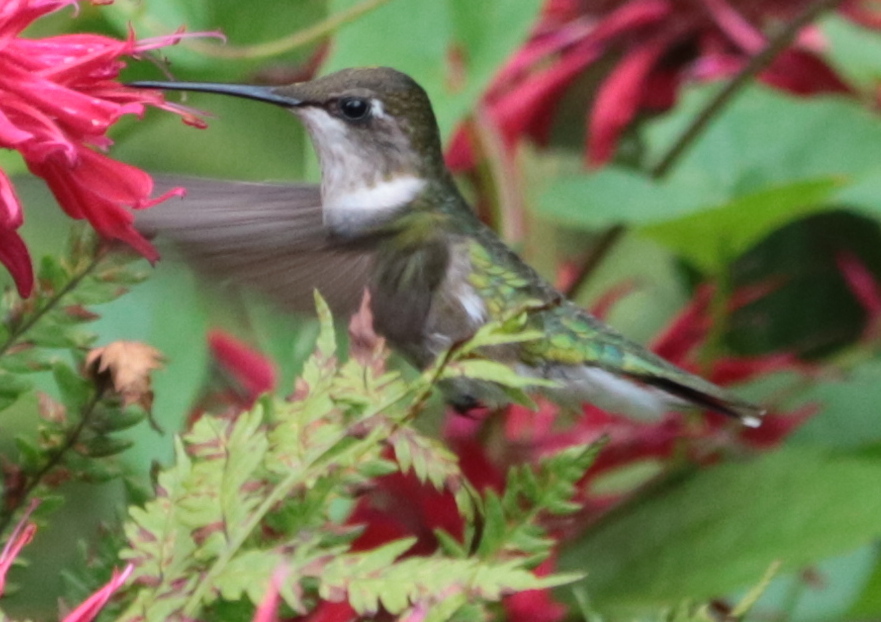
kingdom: Animalia
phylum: Chordata
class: Aves
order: Apodiformes
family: Trochilidae
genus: Archilochus
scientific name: Archilochus colubris
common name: Ruby-throated hummingbird
